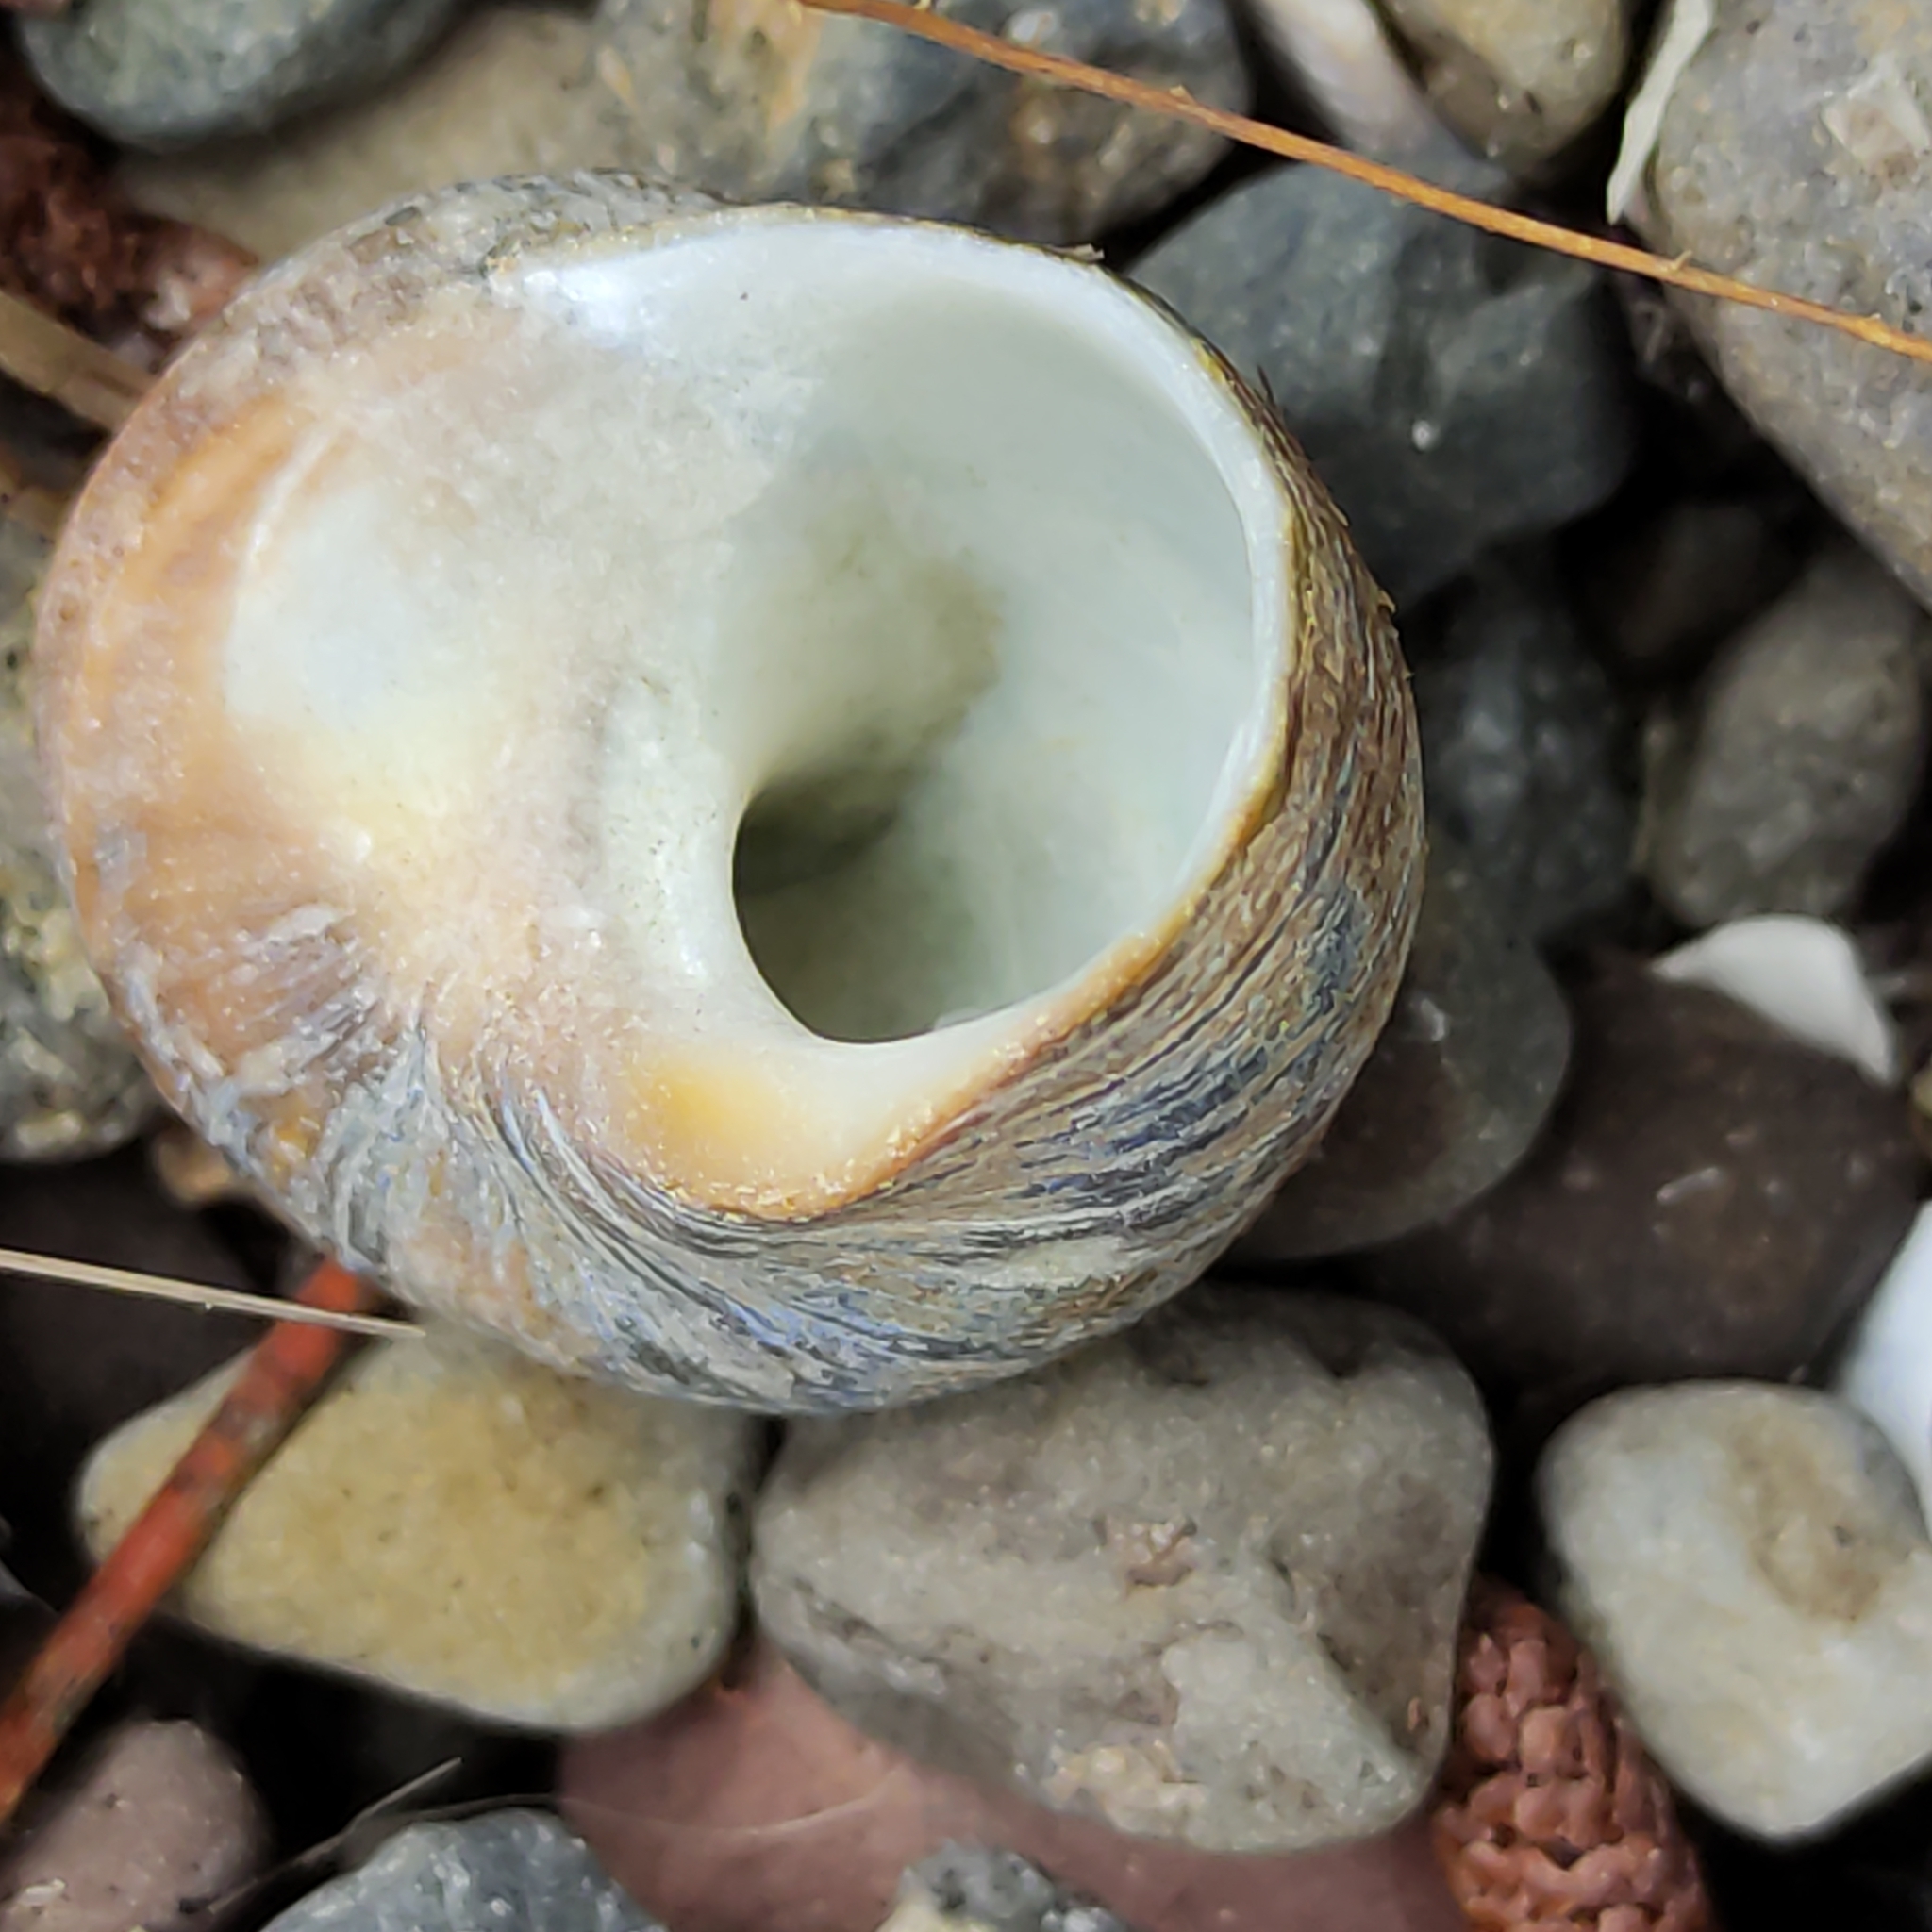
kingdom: Animalia
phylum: Mollusca
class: Gastropoda
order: Trochida
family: Turbinidae
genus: Lunella
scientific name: Lunella smaragda
